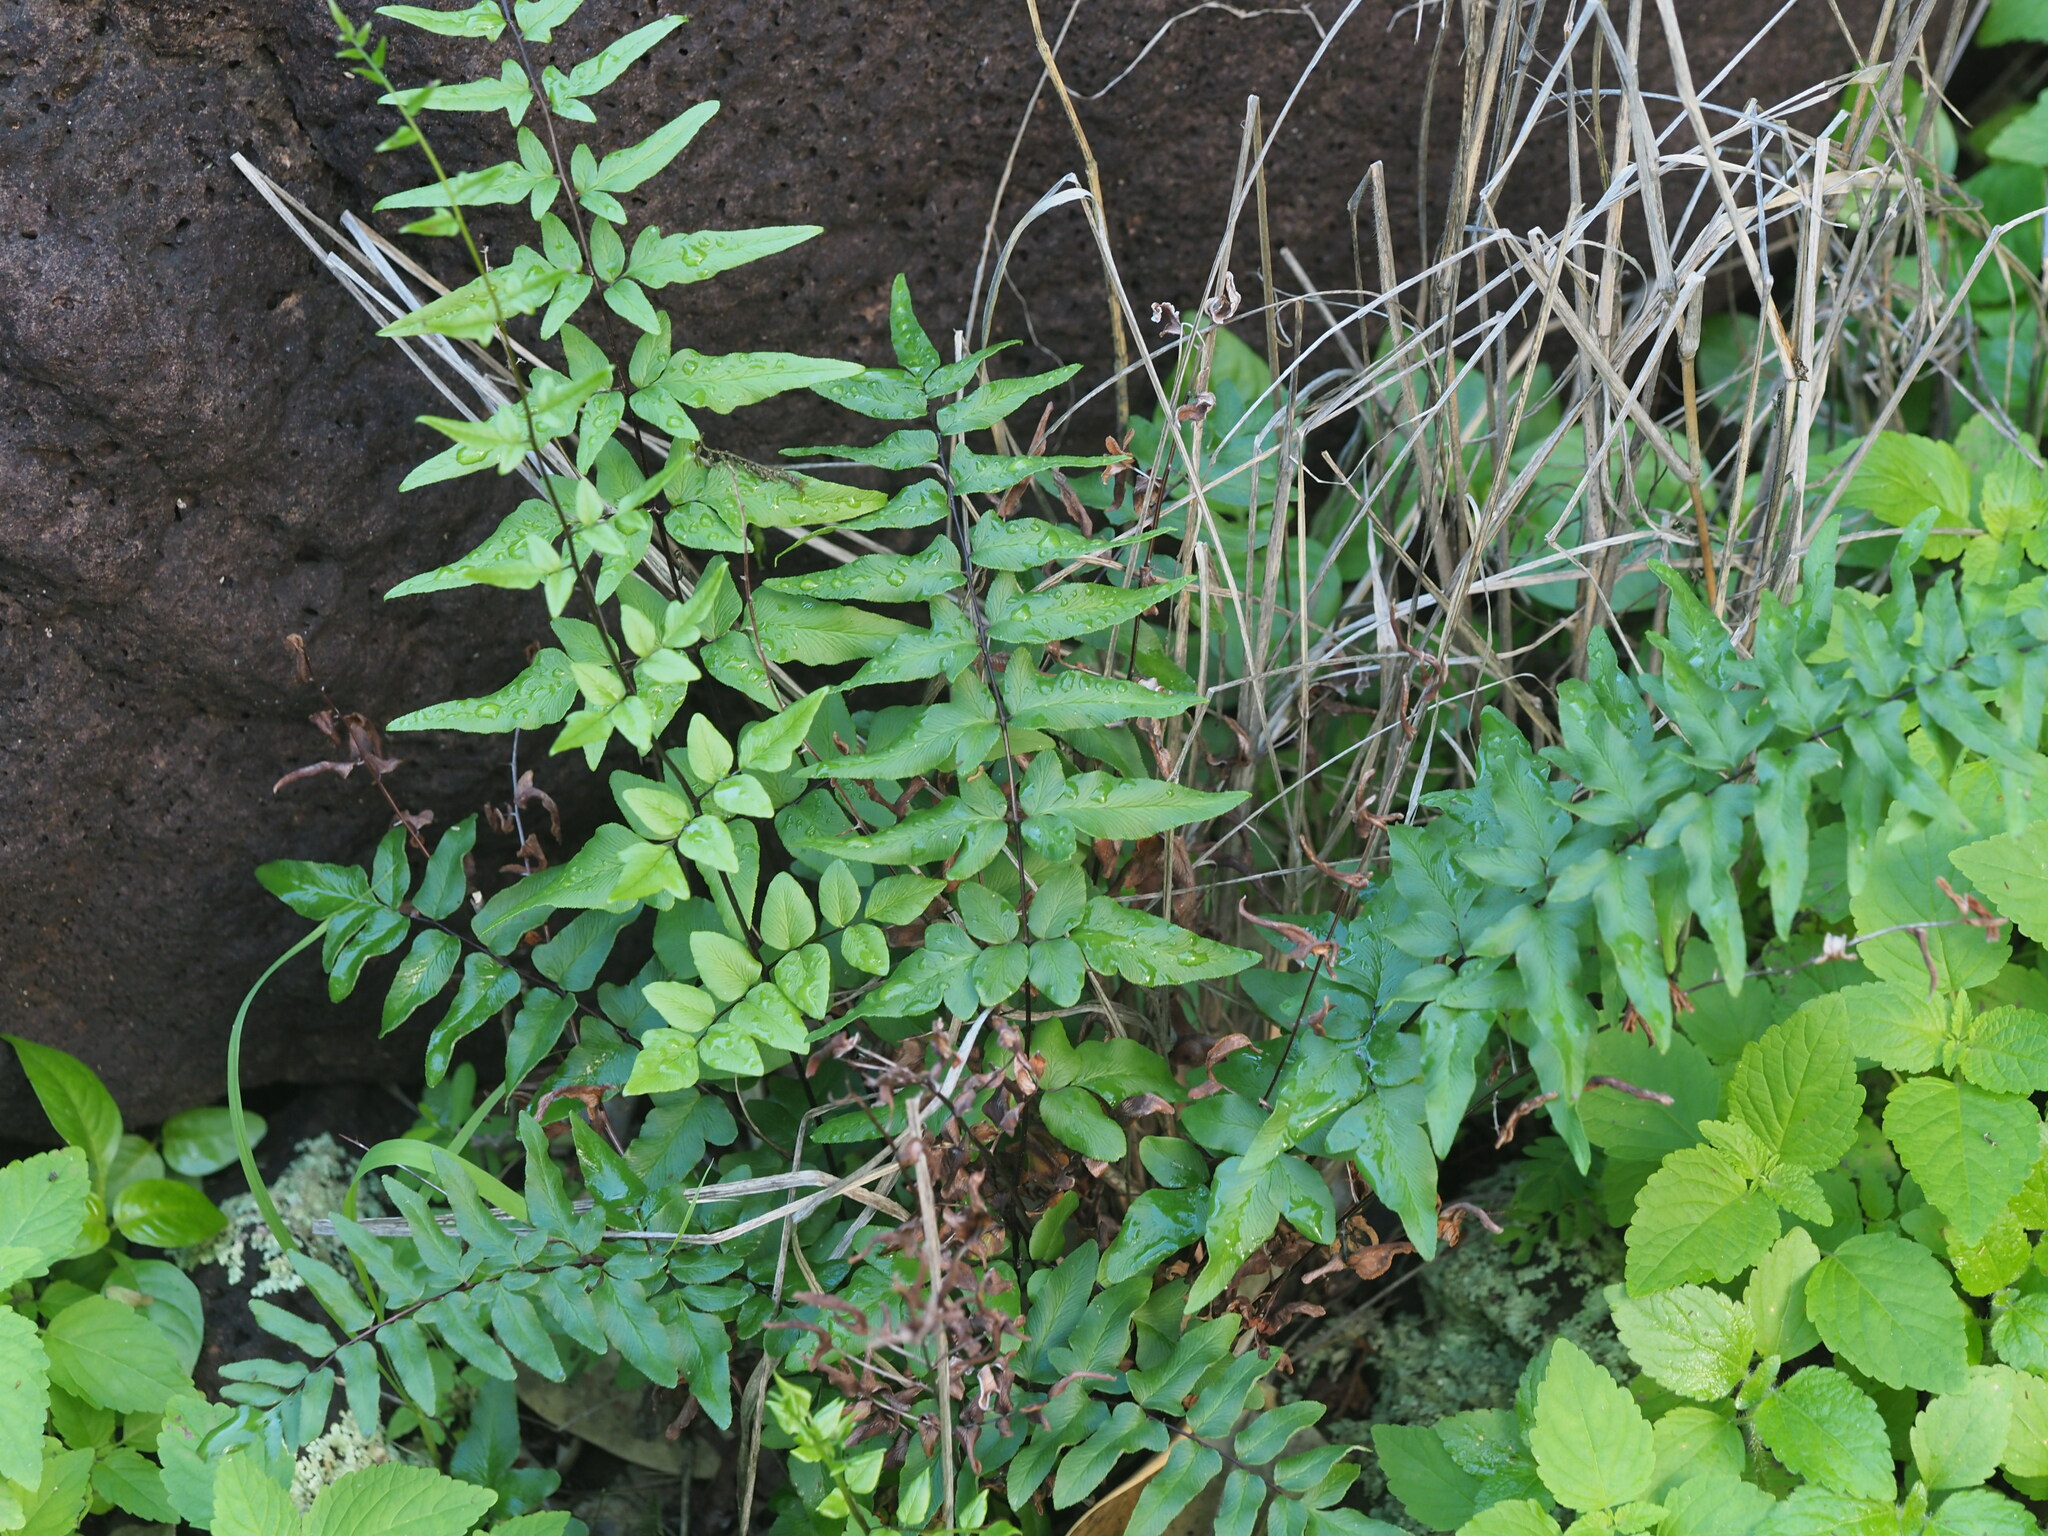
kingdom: Plantae
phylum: Tracheophyta
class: Polypodiopsida
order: Polypodiales
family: Pteridaceae
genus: Cheilanthes
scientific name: Cheilanthes viridis
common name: Green cliffbrake
